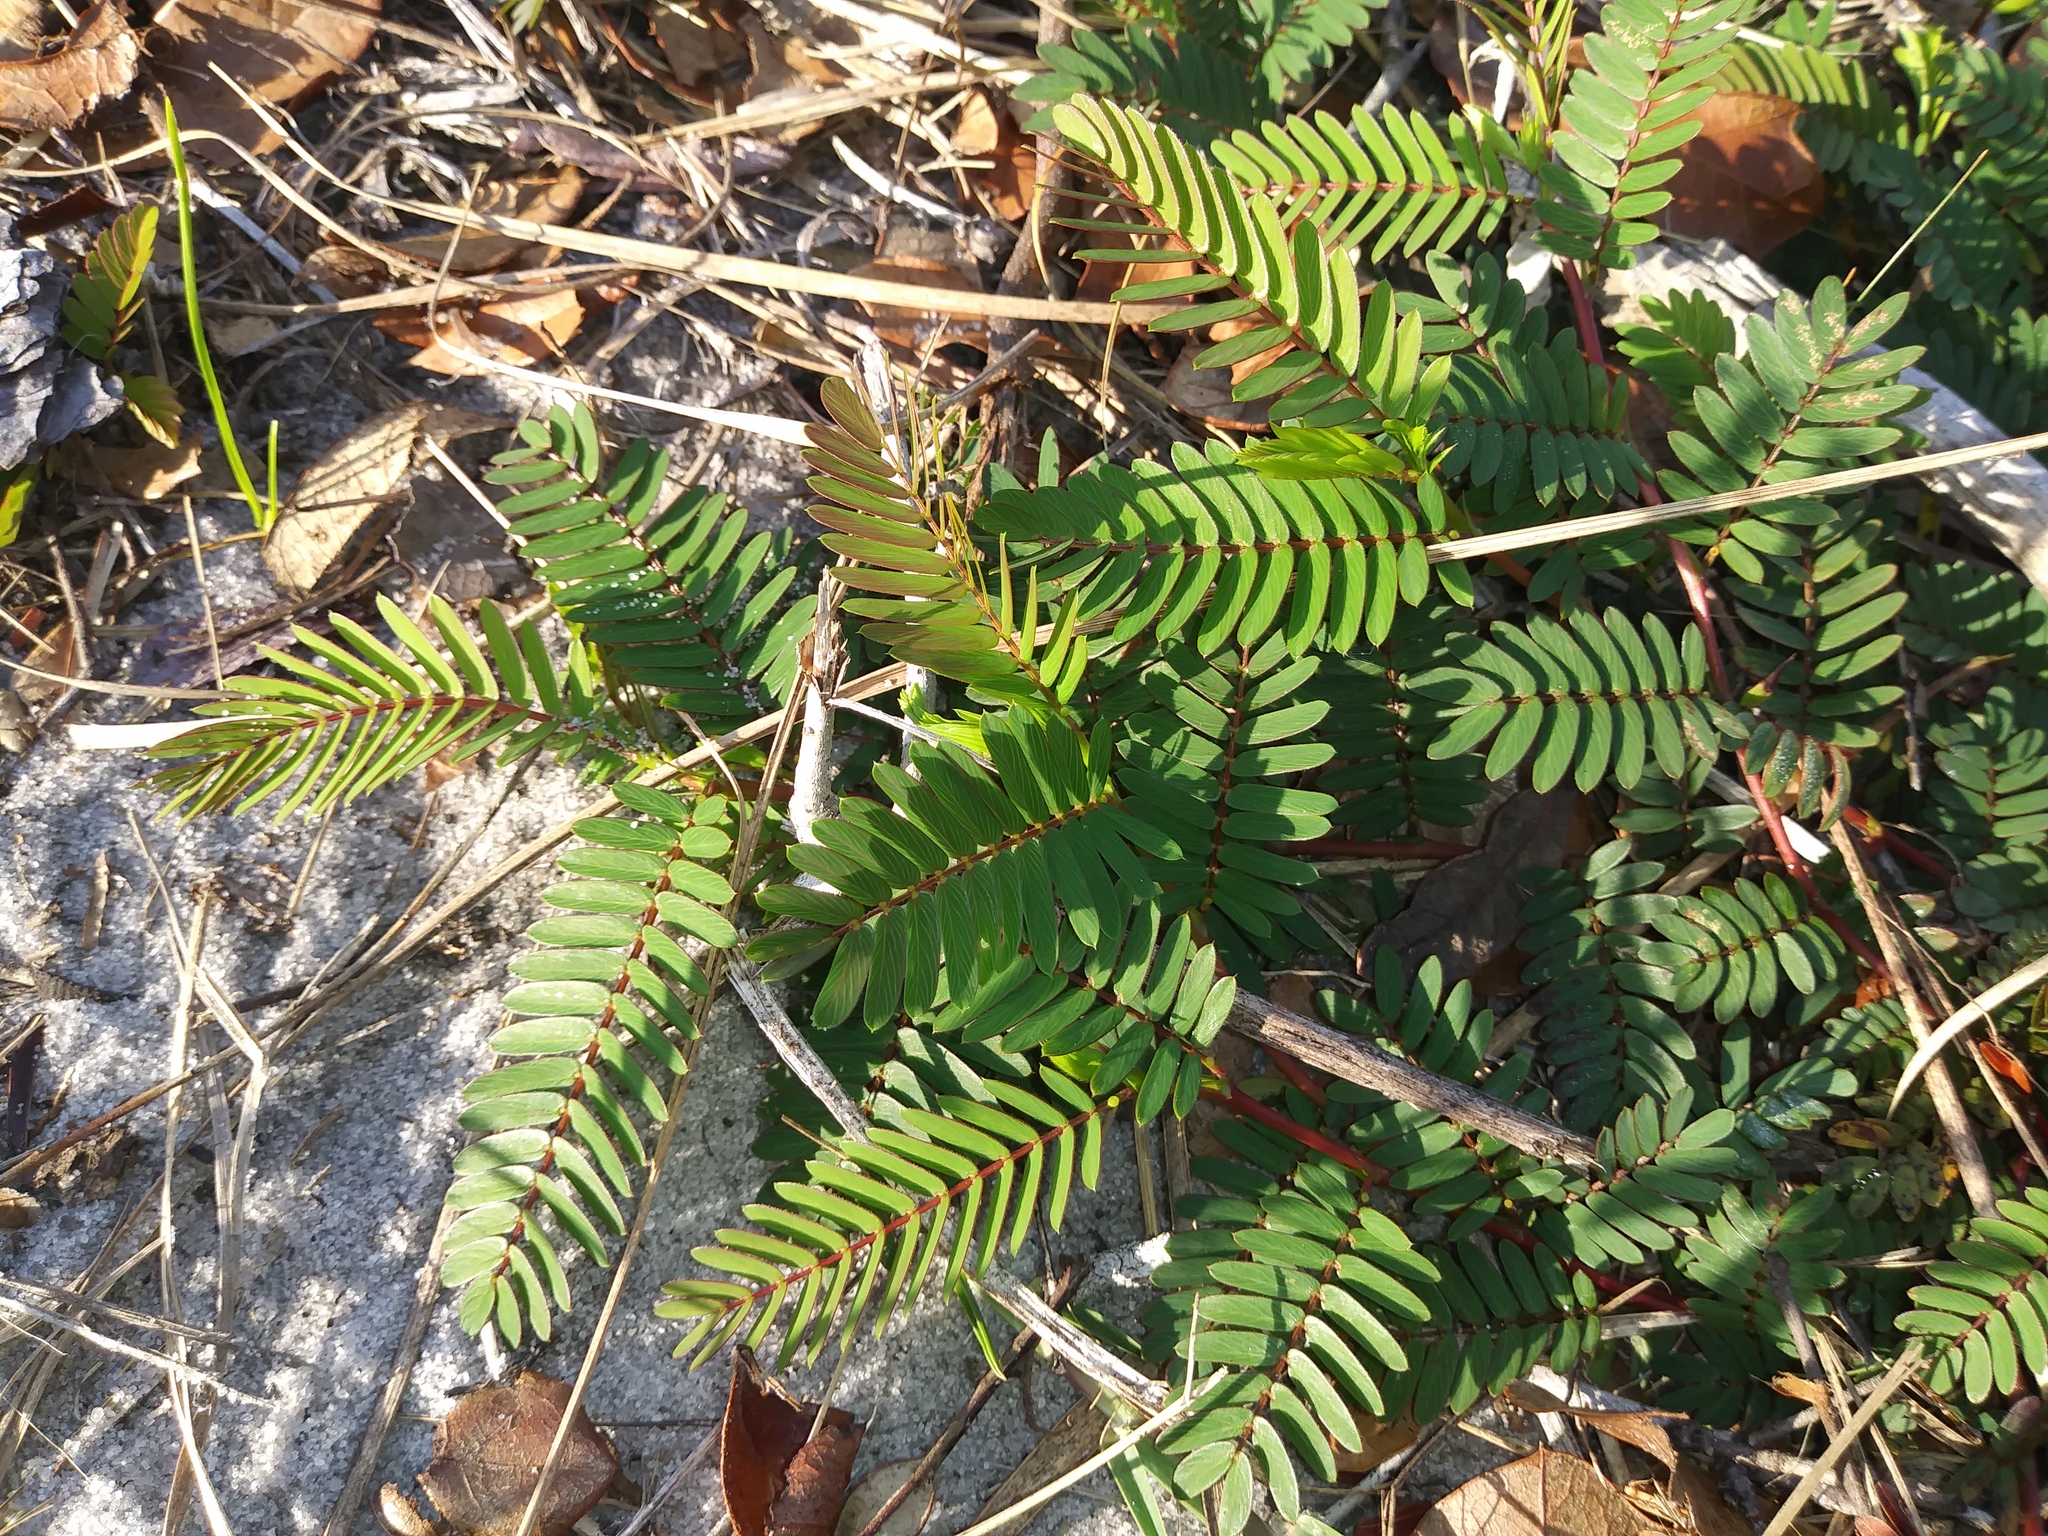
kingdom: Plantae
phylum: Tracheophyta
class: Magnoliopsida
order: Fabales
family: Fabaceae
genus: Chamaecrista
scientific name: Chamaecrista fasciculata
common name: Golden cassia
